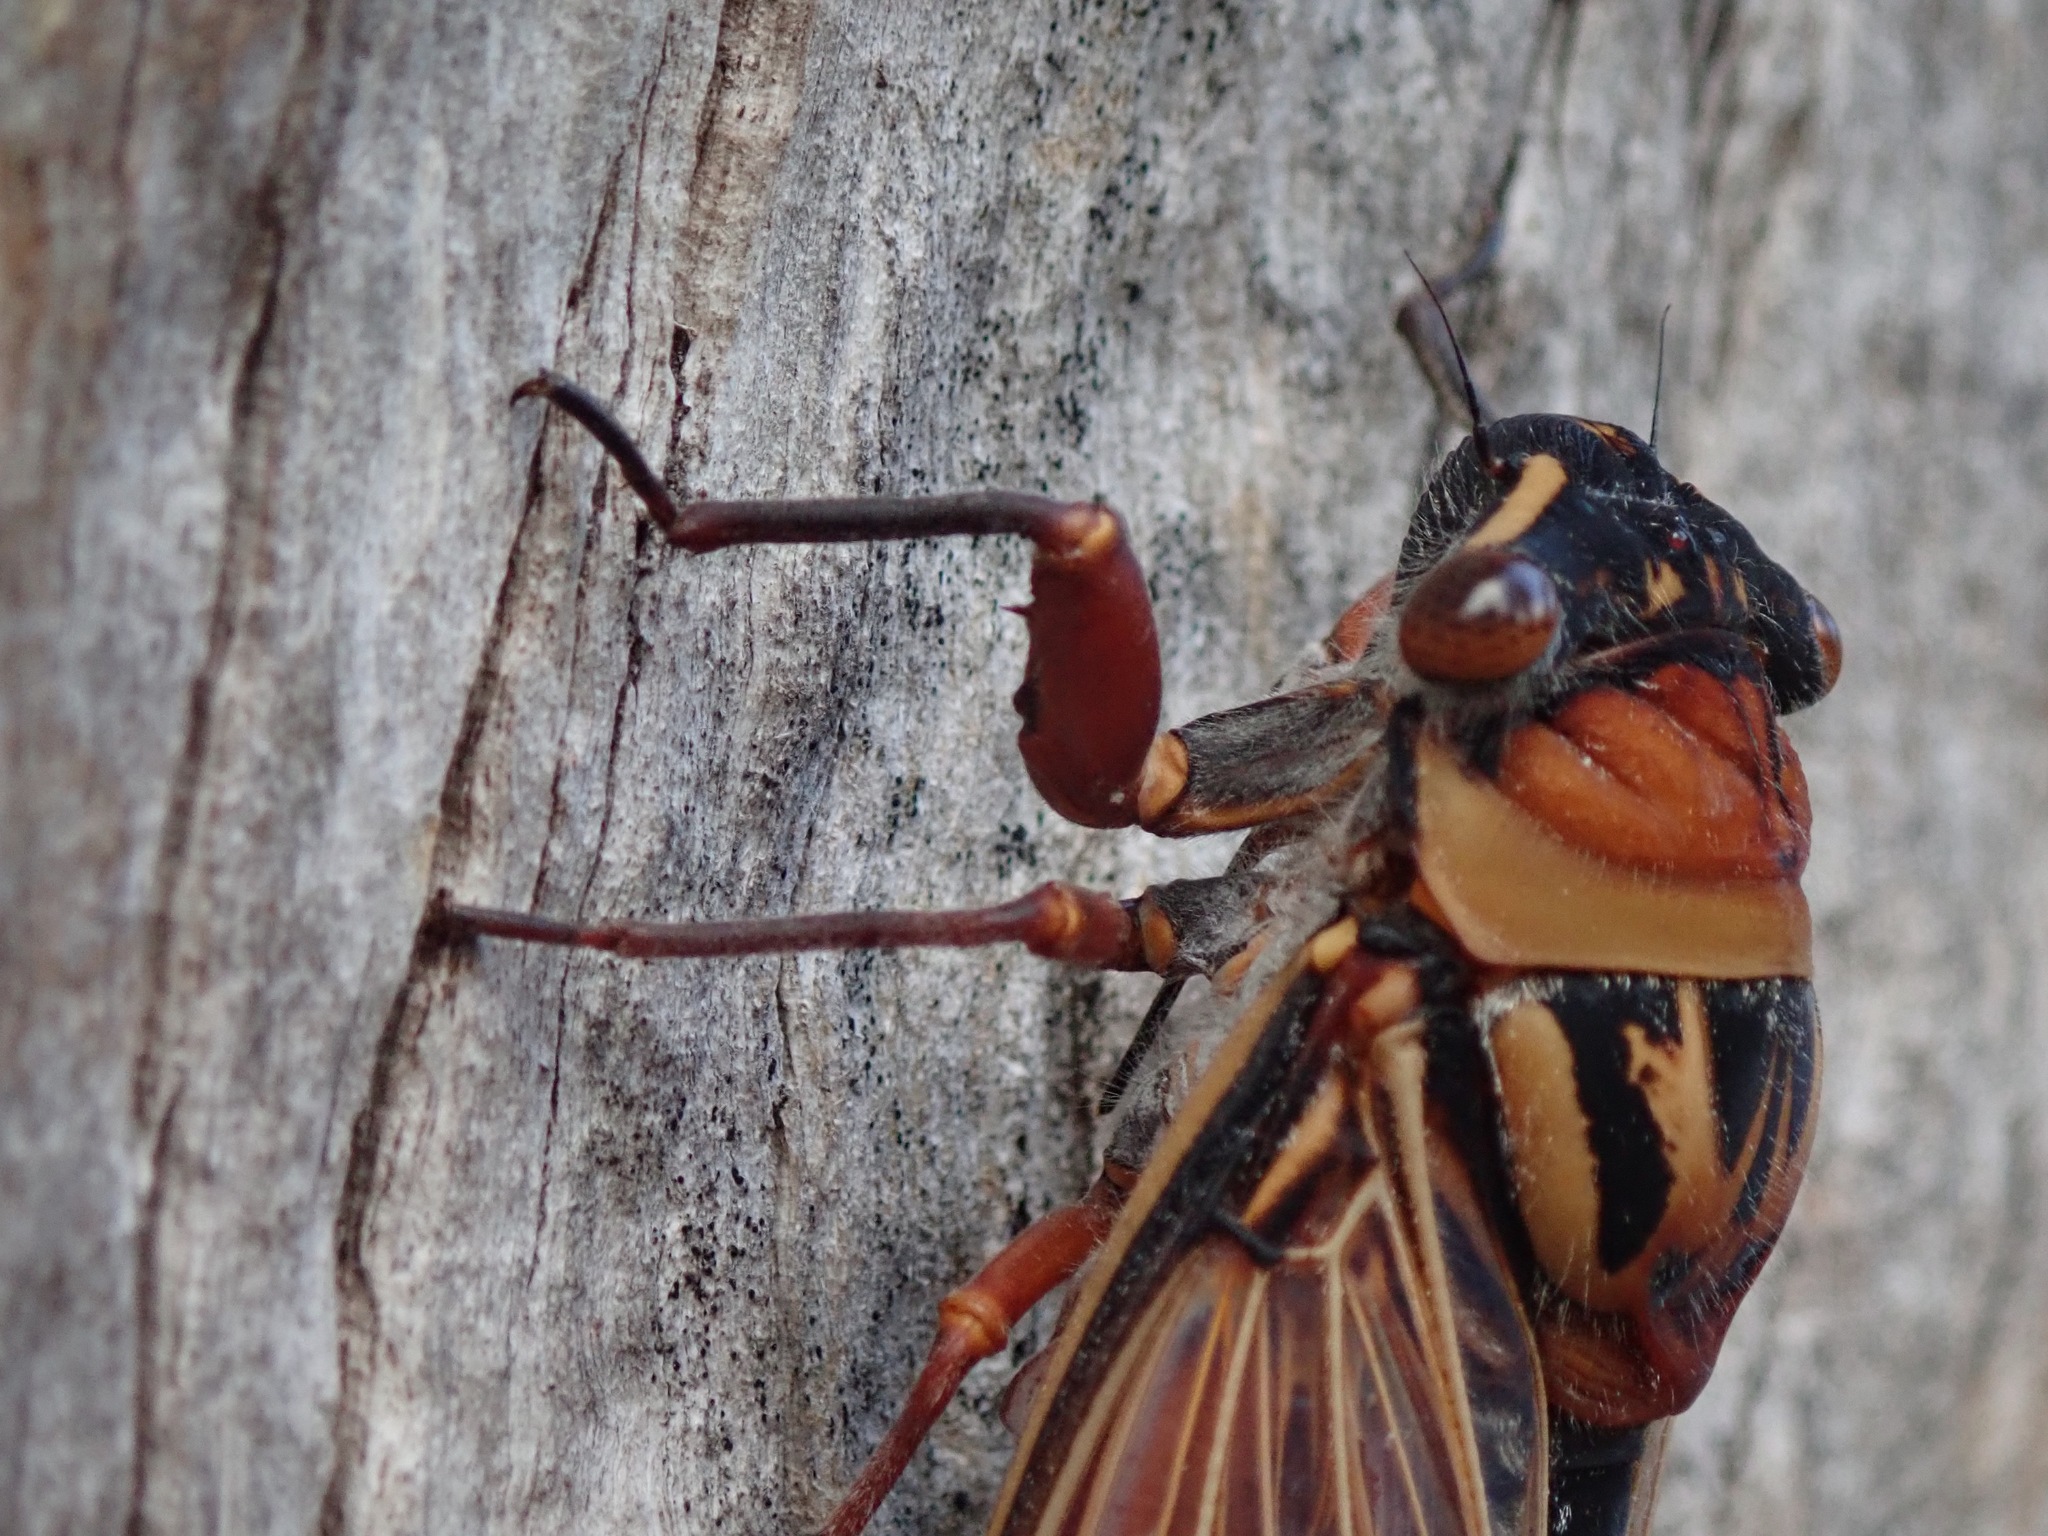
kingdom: Animalia
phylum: Arthropoda
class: Insecta
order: Hemiptera
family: Cicadidae
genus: Thopha
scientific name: Thopha saccata
